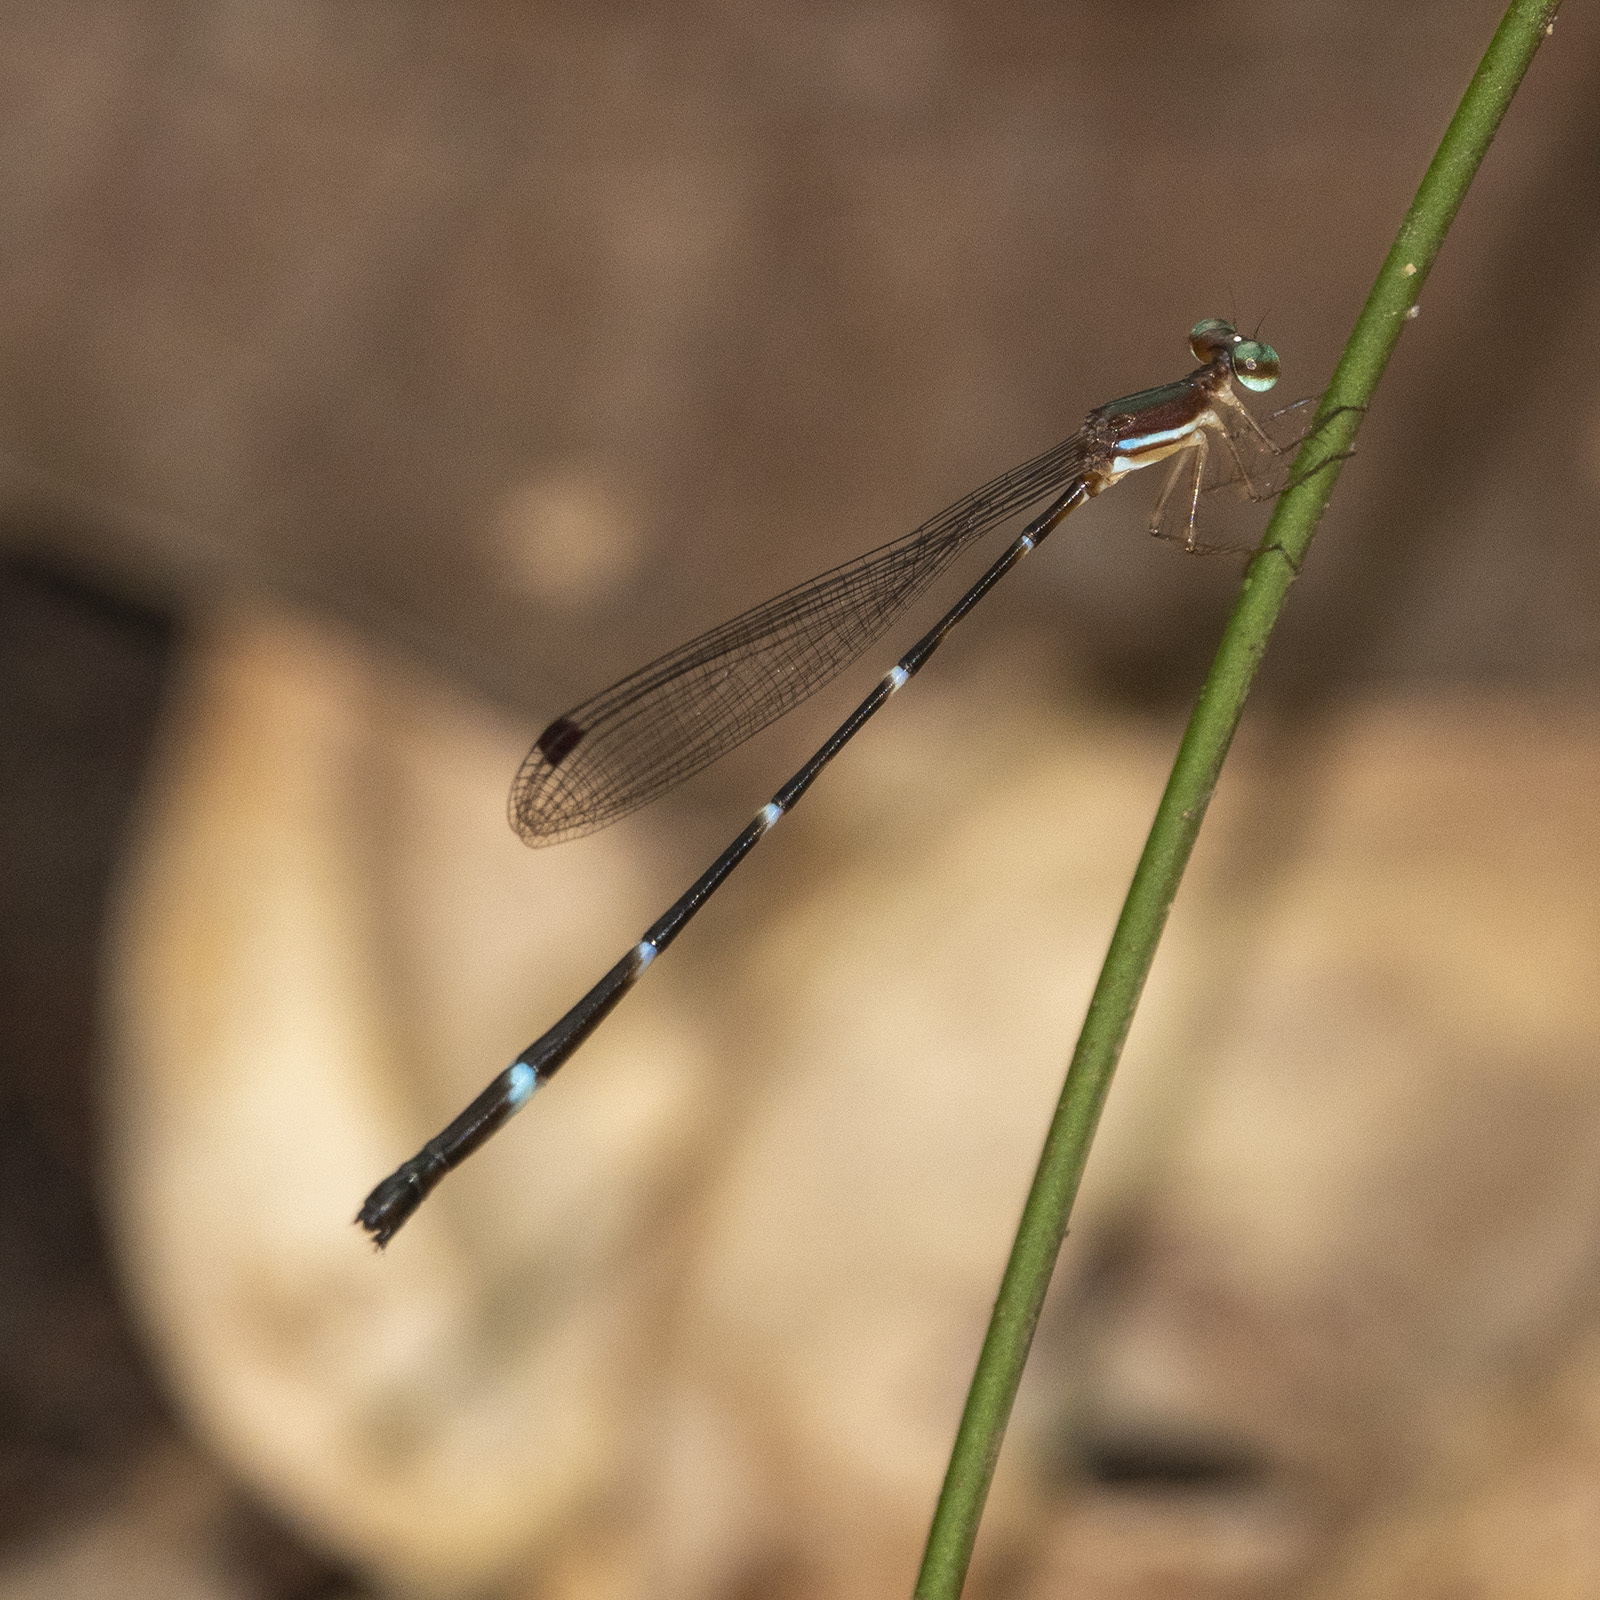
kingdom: Animalia
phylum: Arthropoda
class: Insecta
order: Odonata
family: Platystictidae
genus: Protosticta
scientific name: Protosticta sanguinostigma
